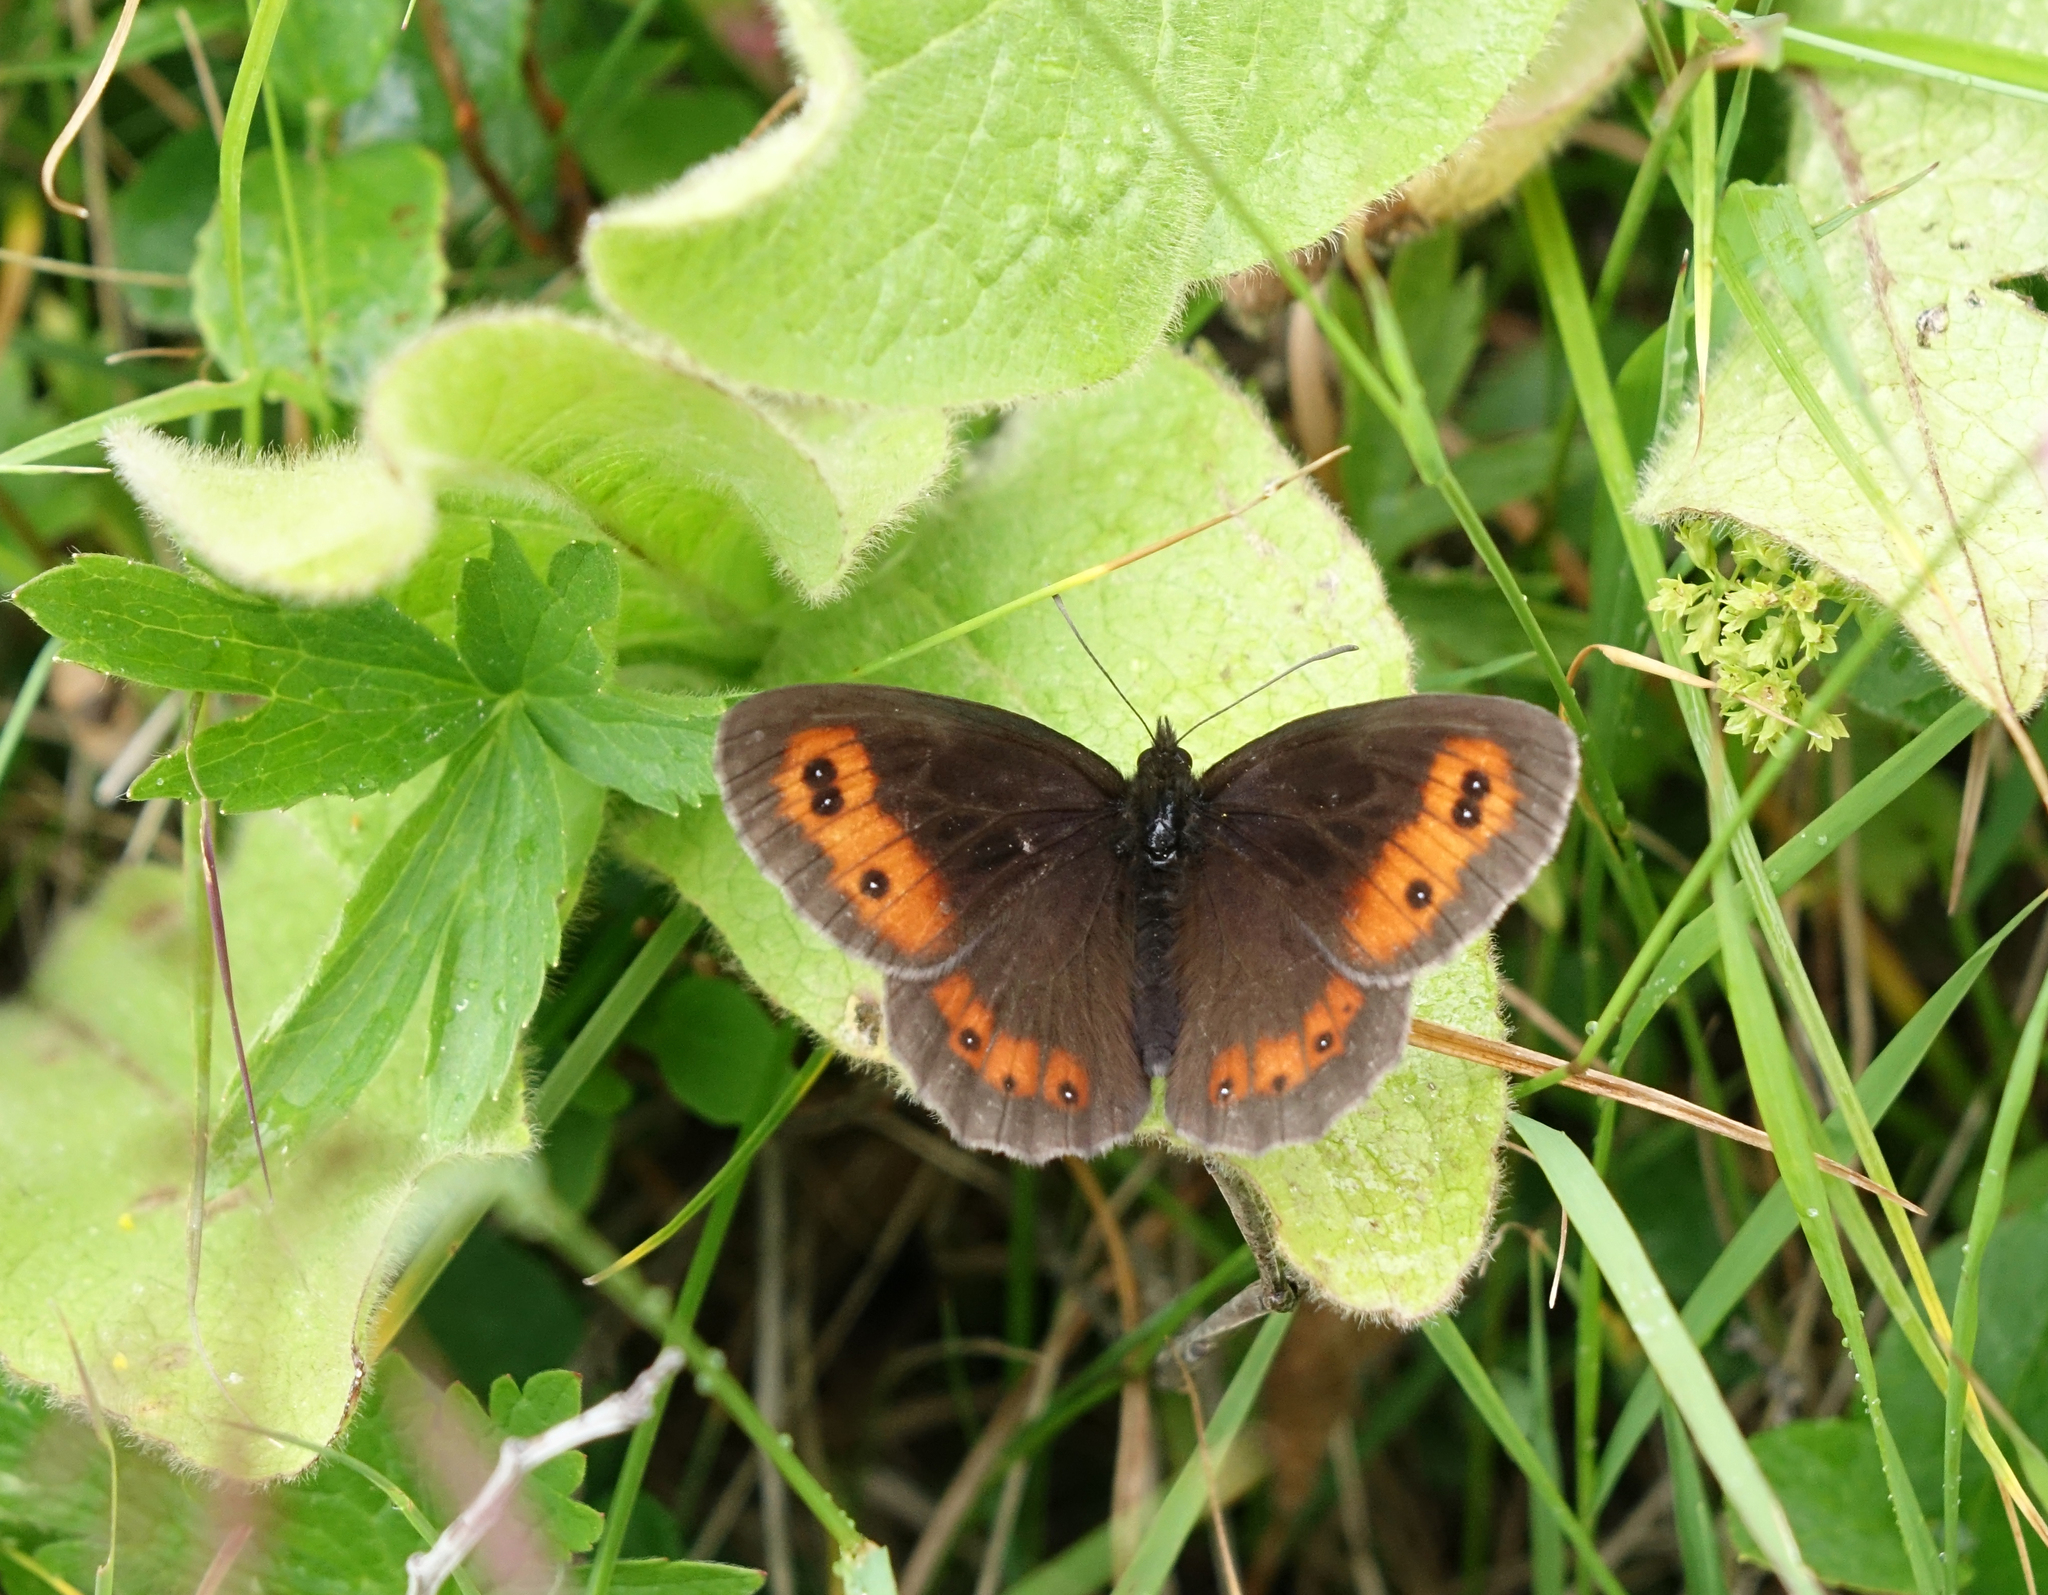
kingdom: Animalia
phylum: Arthropoda
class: Insecta
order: Lepidoptera
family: Nymphalidae
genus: Erebia
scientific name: Erebia aethiops
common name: Scotch argus
